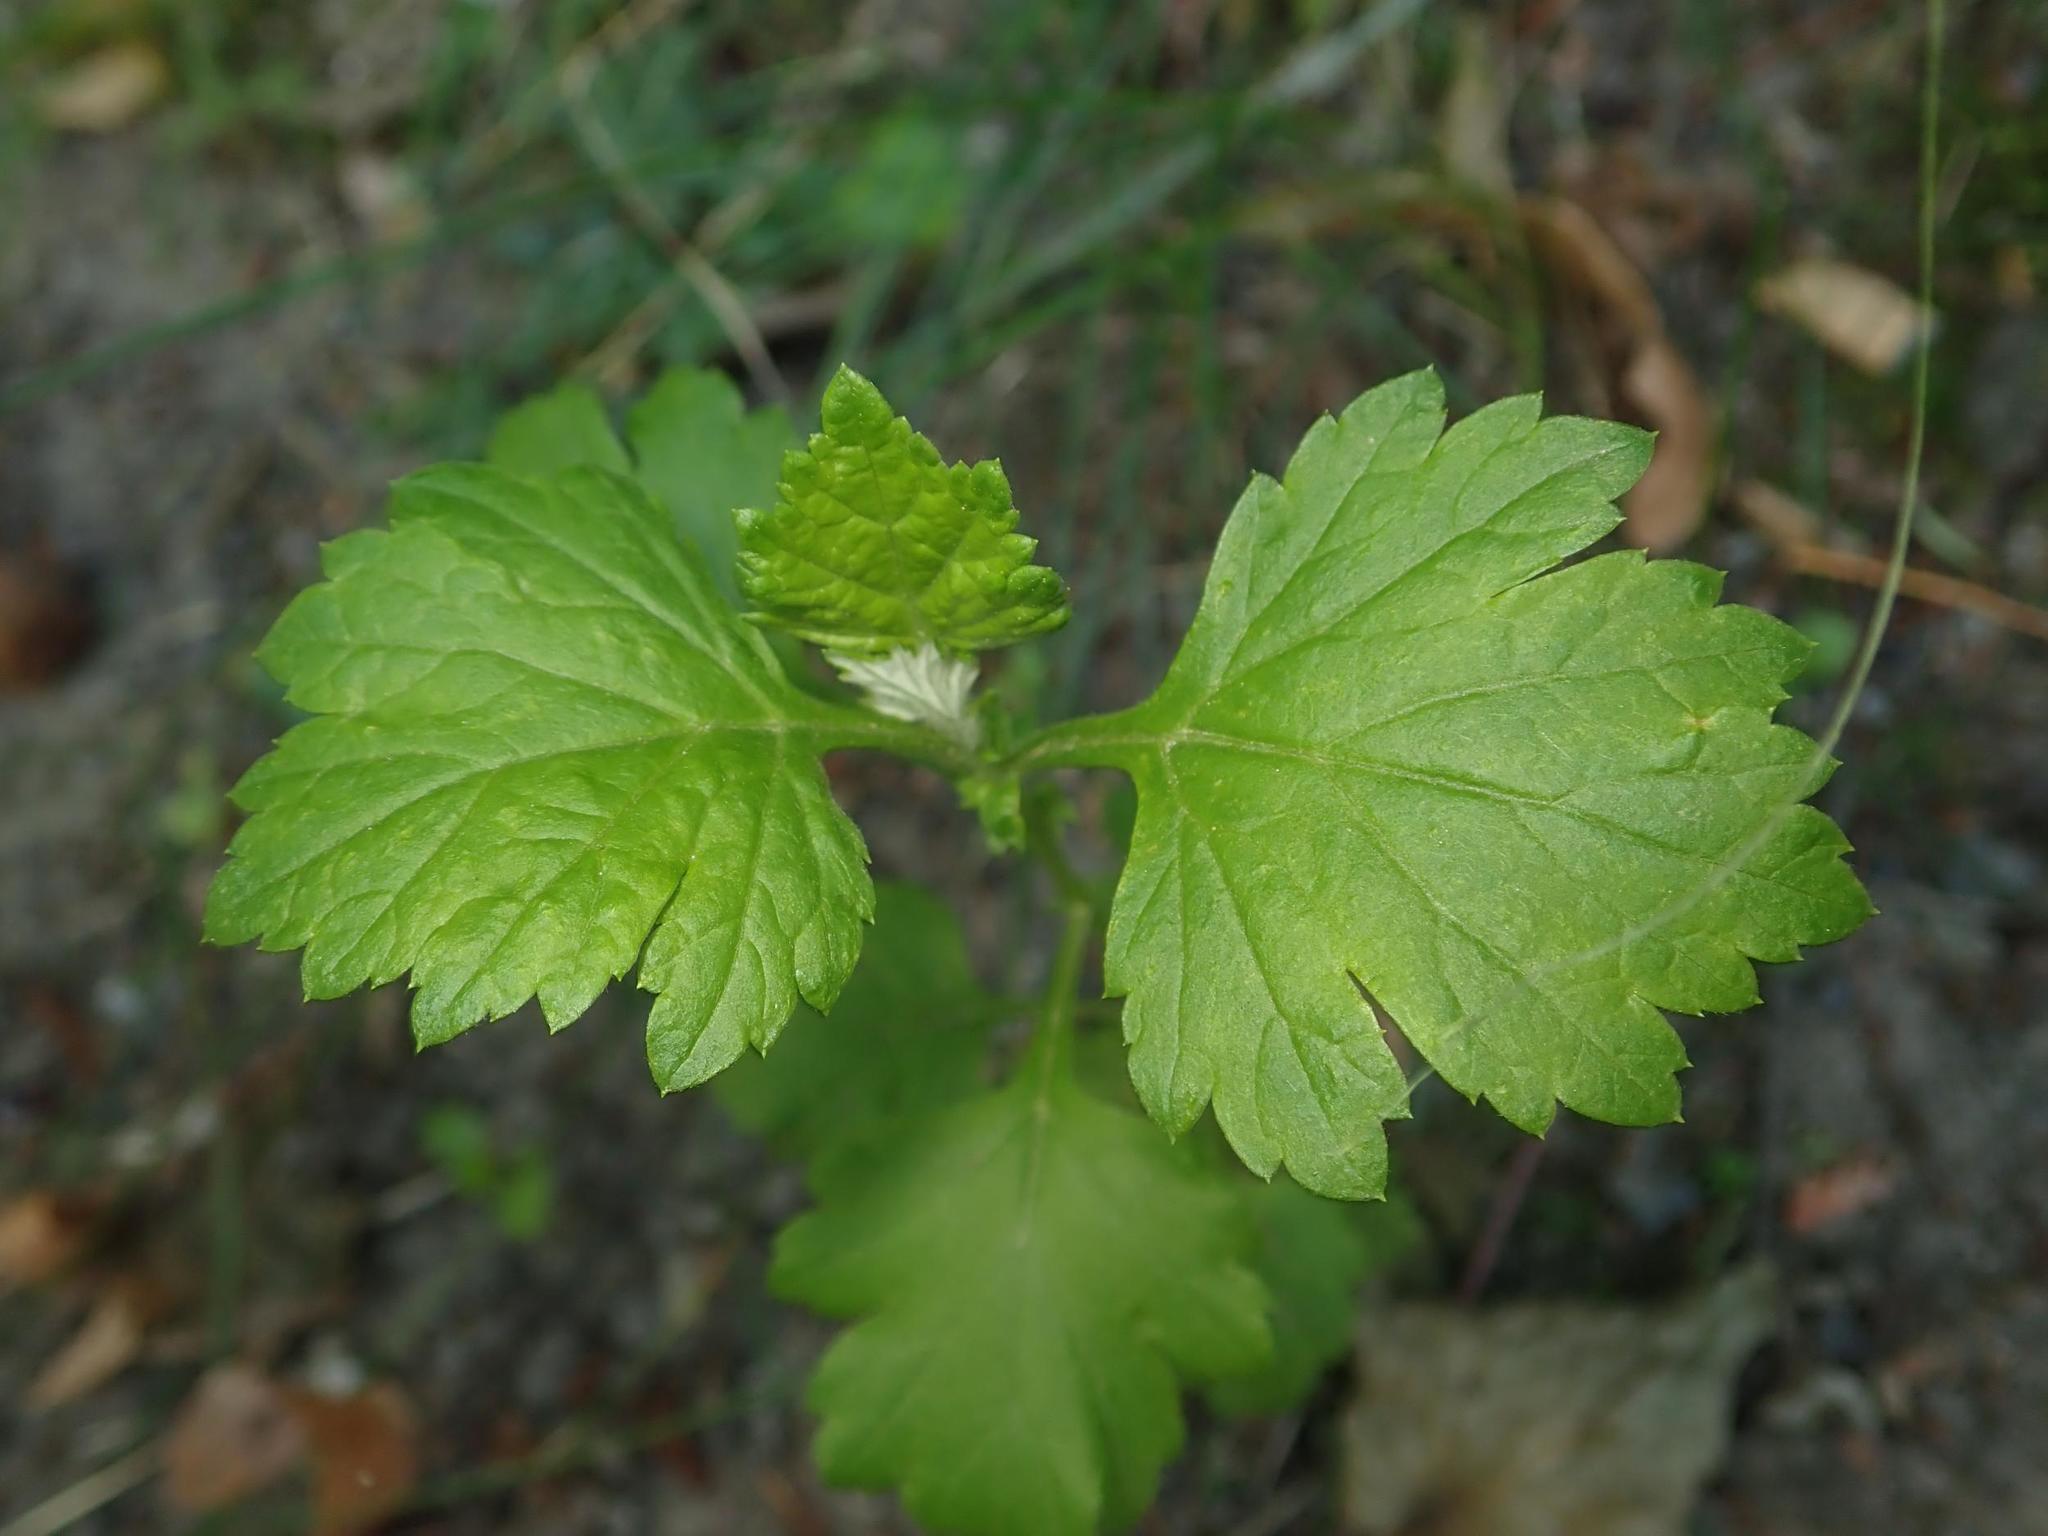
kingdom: Plantae
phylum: Tracheophyta
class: Magnoliopsida
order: Asterales
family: Asteraceae
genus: Artemisia
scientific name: Artemisia vulgaris
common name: Mugwort
